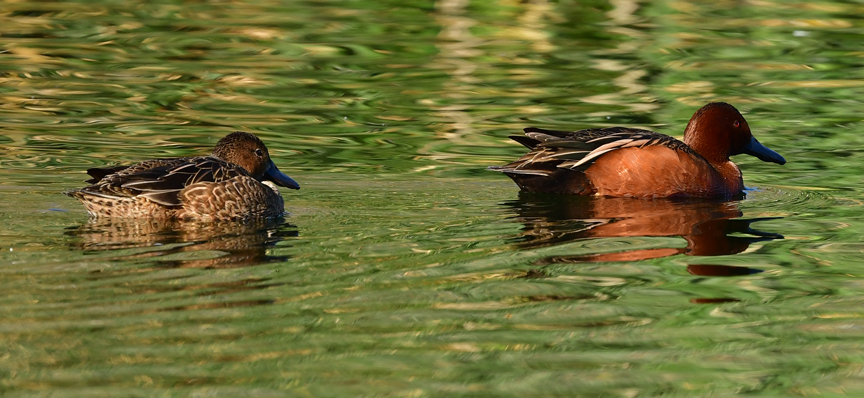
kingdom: Animalia
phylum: Chordata
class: Aves
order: Anseriformes
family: Anatidae
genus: Spatula
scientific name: Spatula cyanoptera
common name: Cinnamon teal
